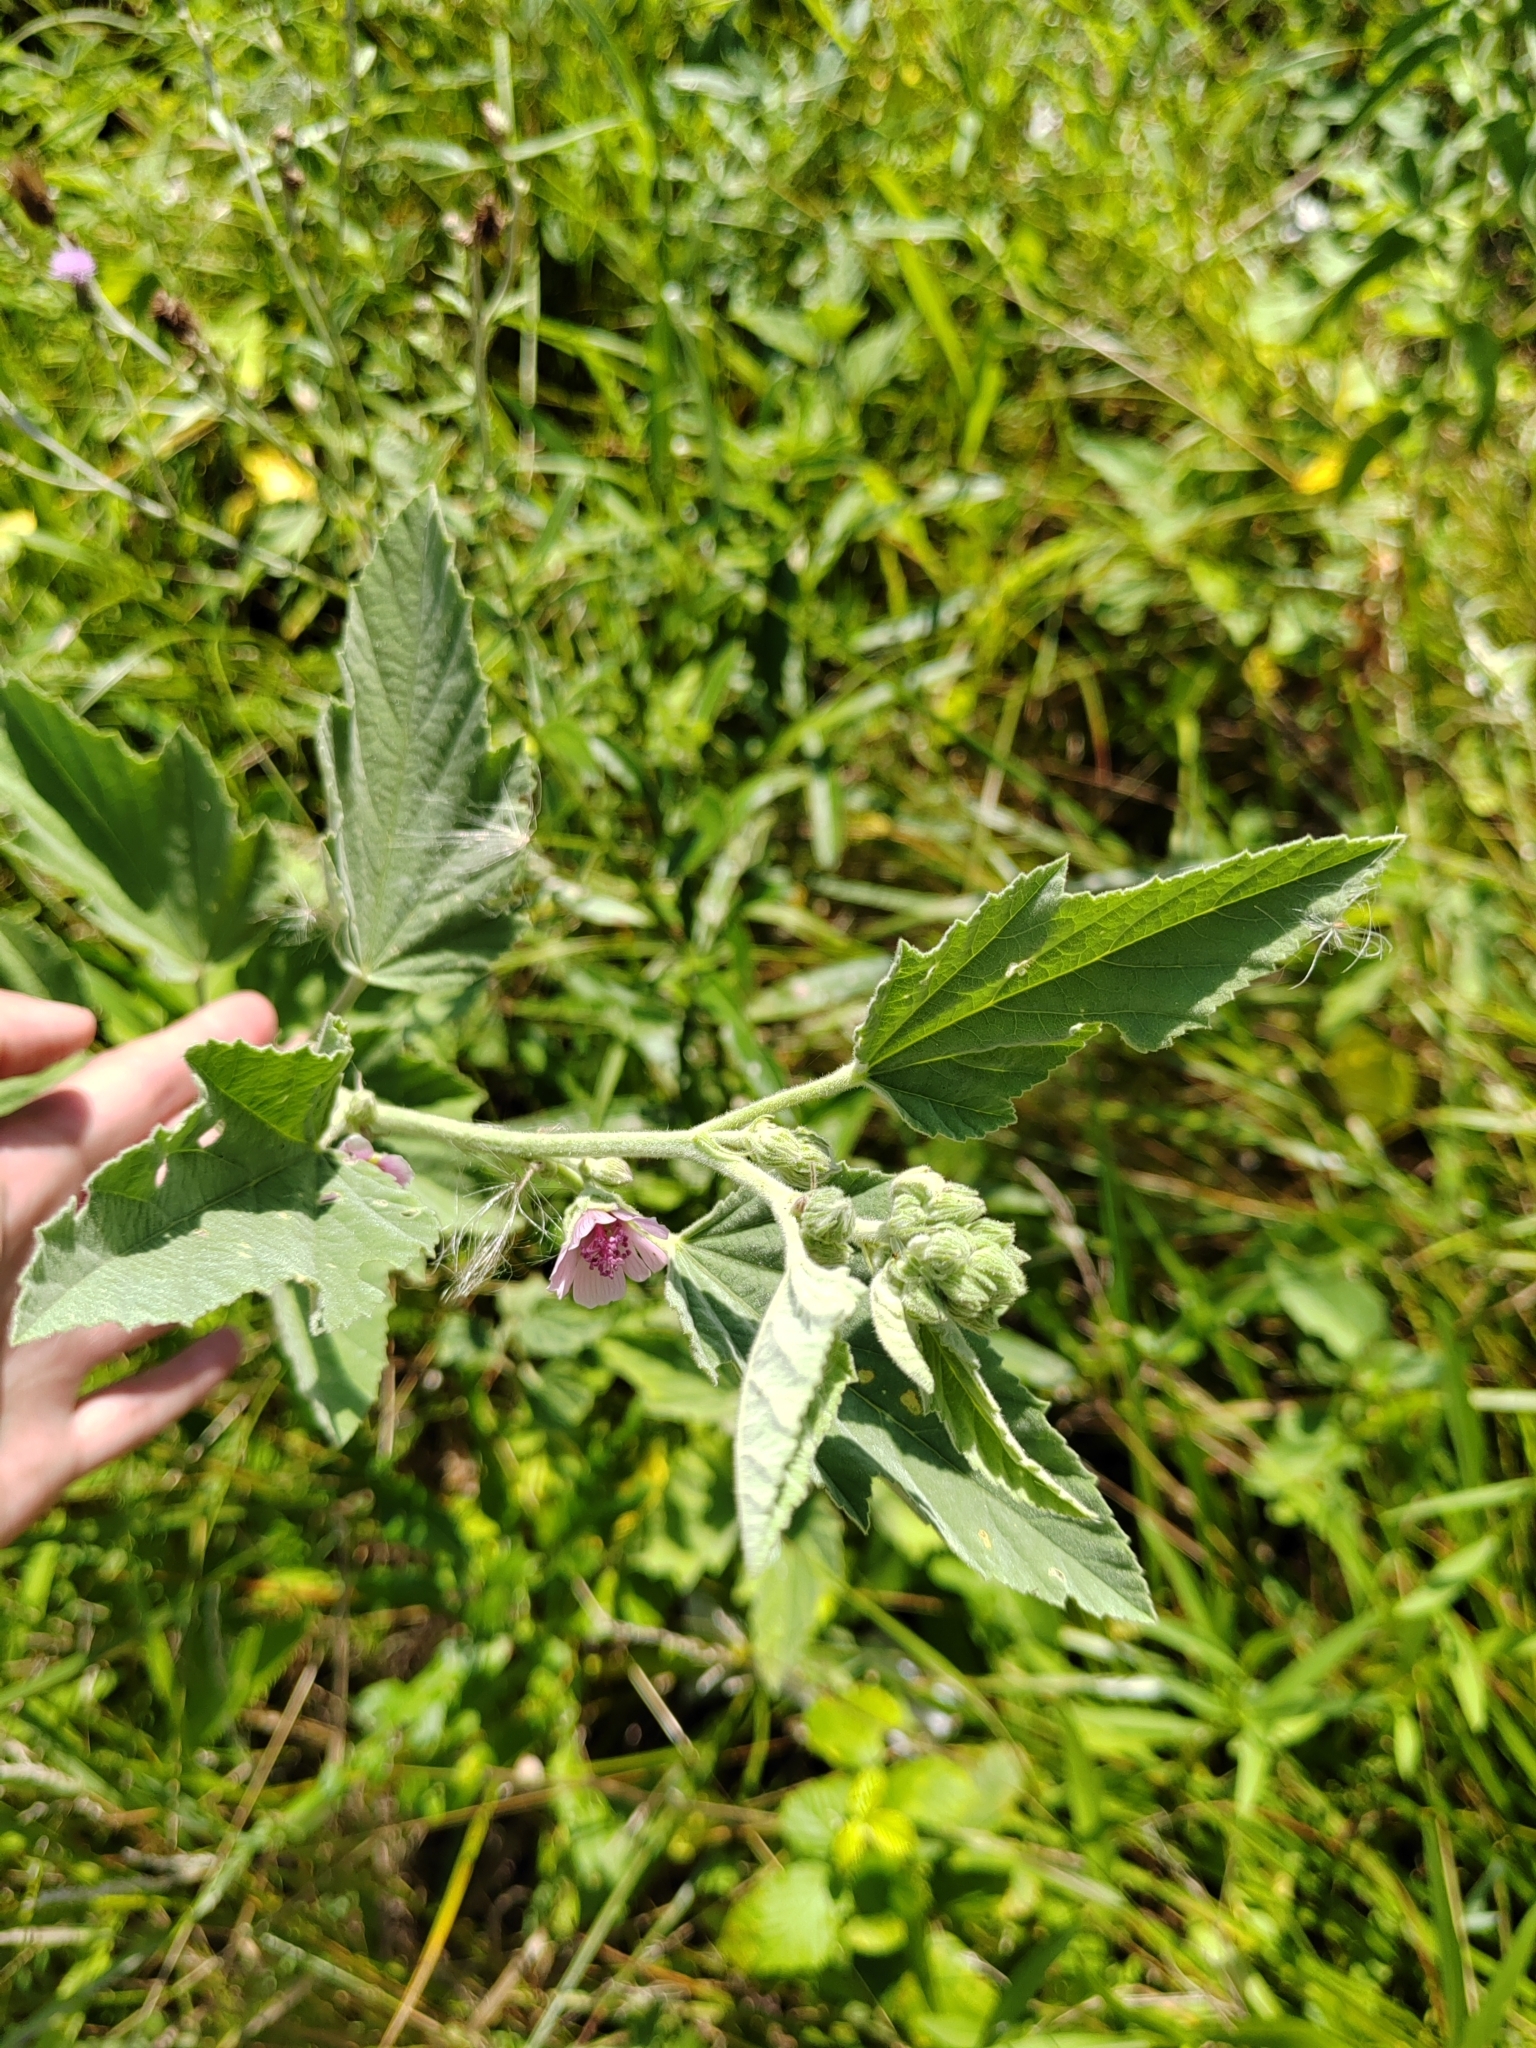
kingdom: Plantae
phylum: Tracheophyta
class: Magnoliopsida
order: Malvales
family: Malvaceae
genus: Althaea
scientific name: Althaea officinalis
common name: Marsh-mallow
